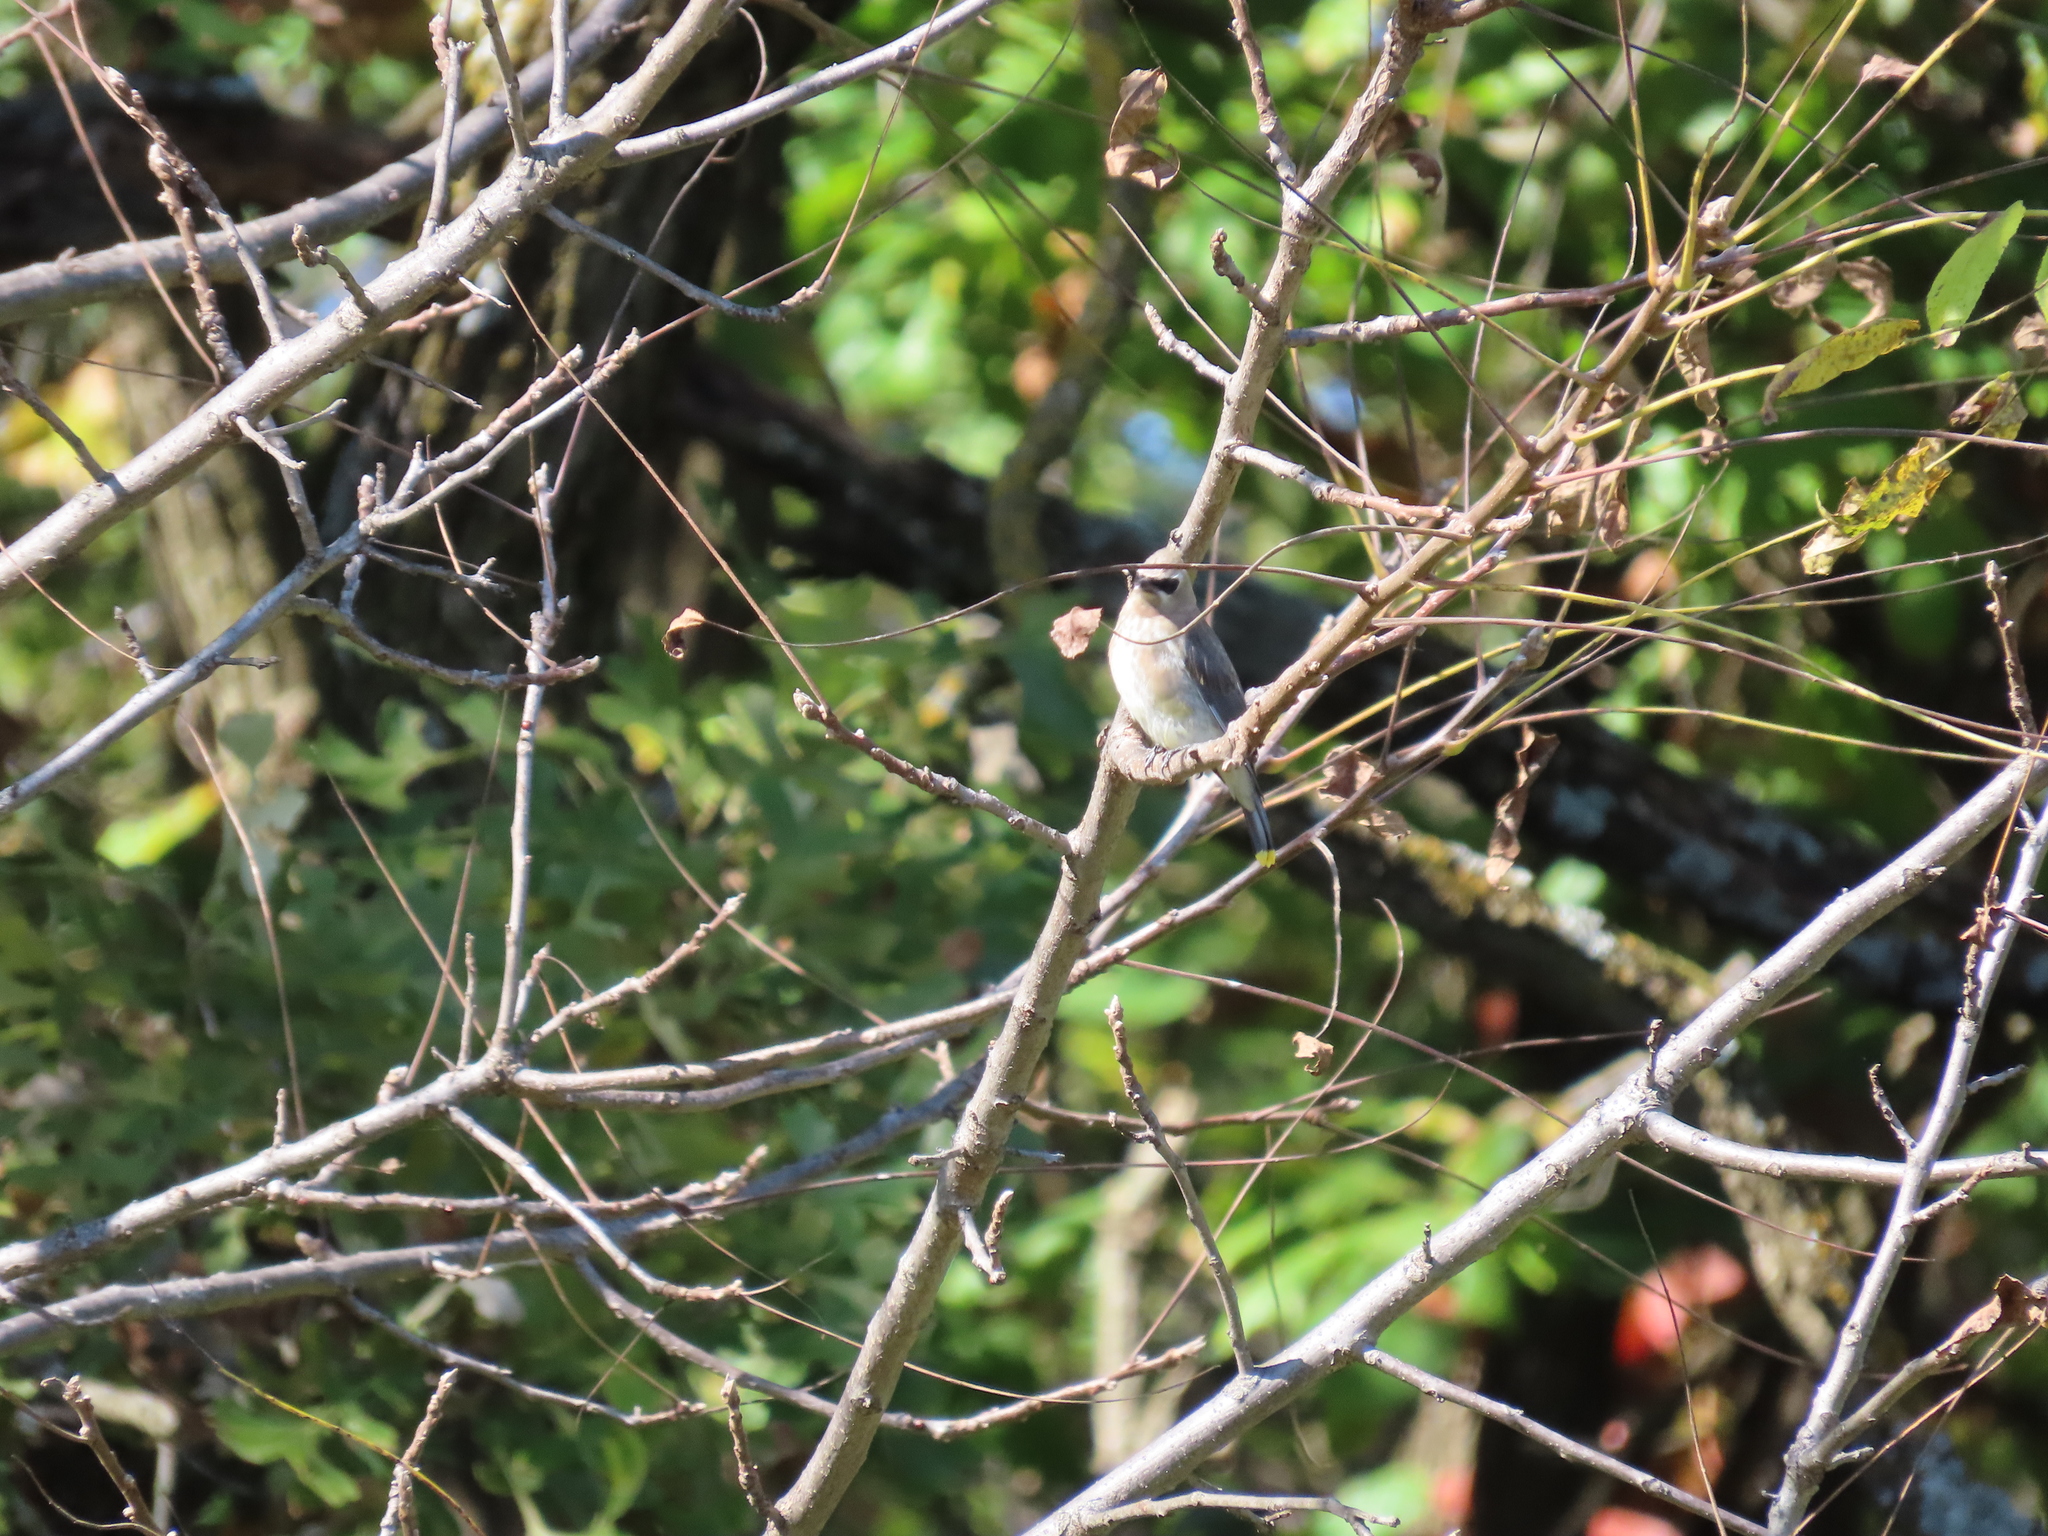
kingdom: Animalia
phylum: Chordata
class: Aves
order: Passeriformes
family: Bombycillidae
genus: Bombycilla
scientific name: Bombycilla cedrorum
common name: Cedar waxwing
